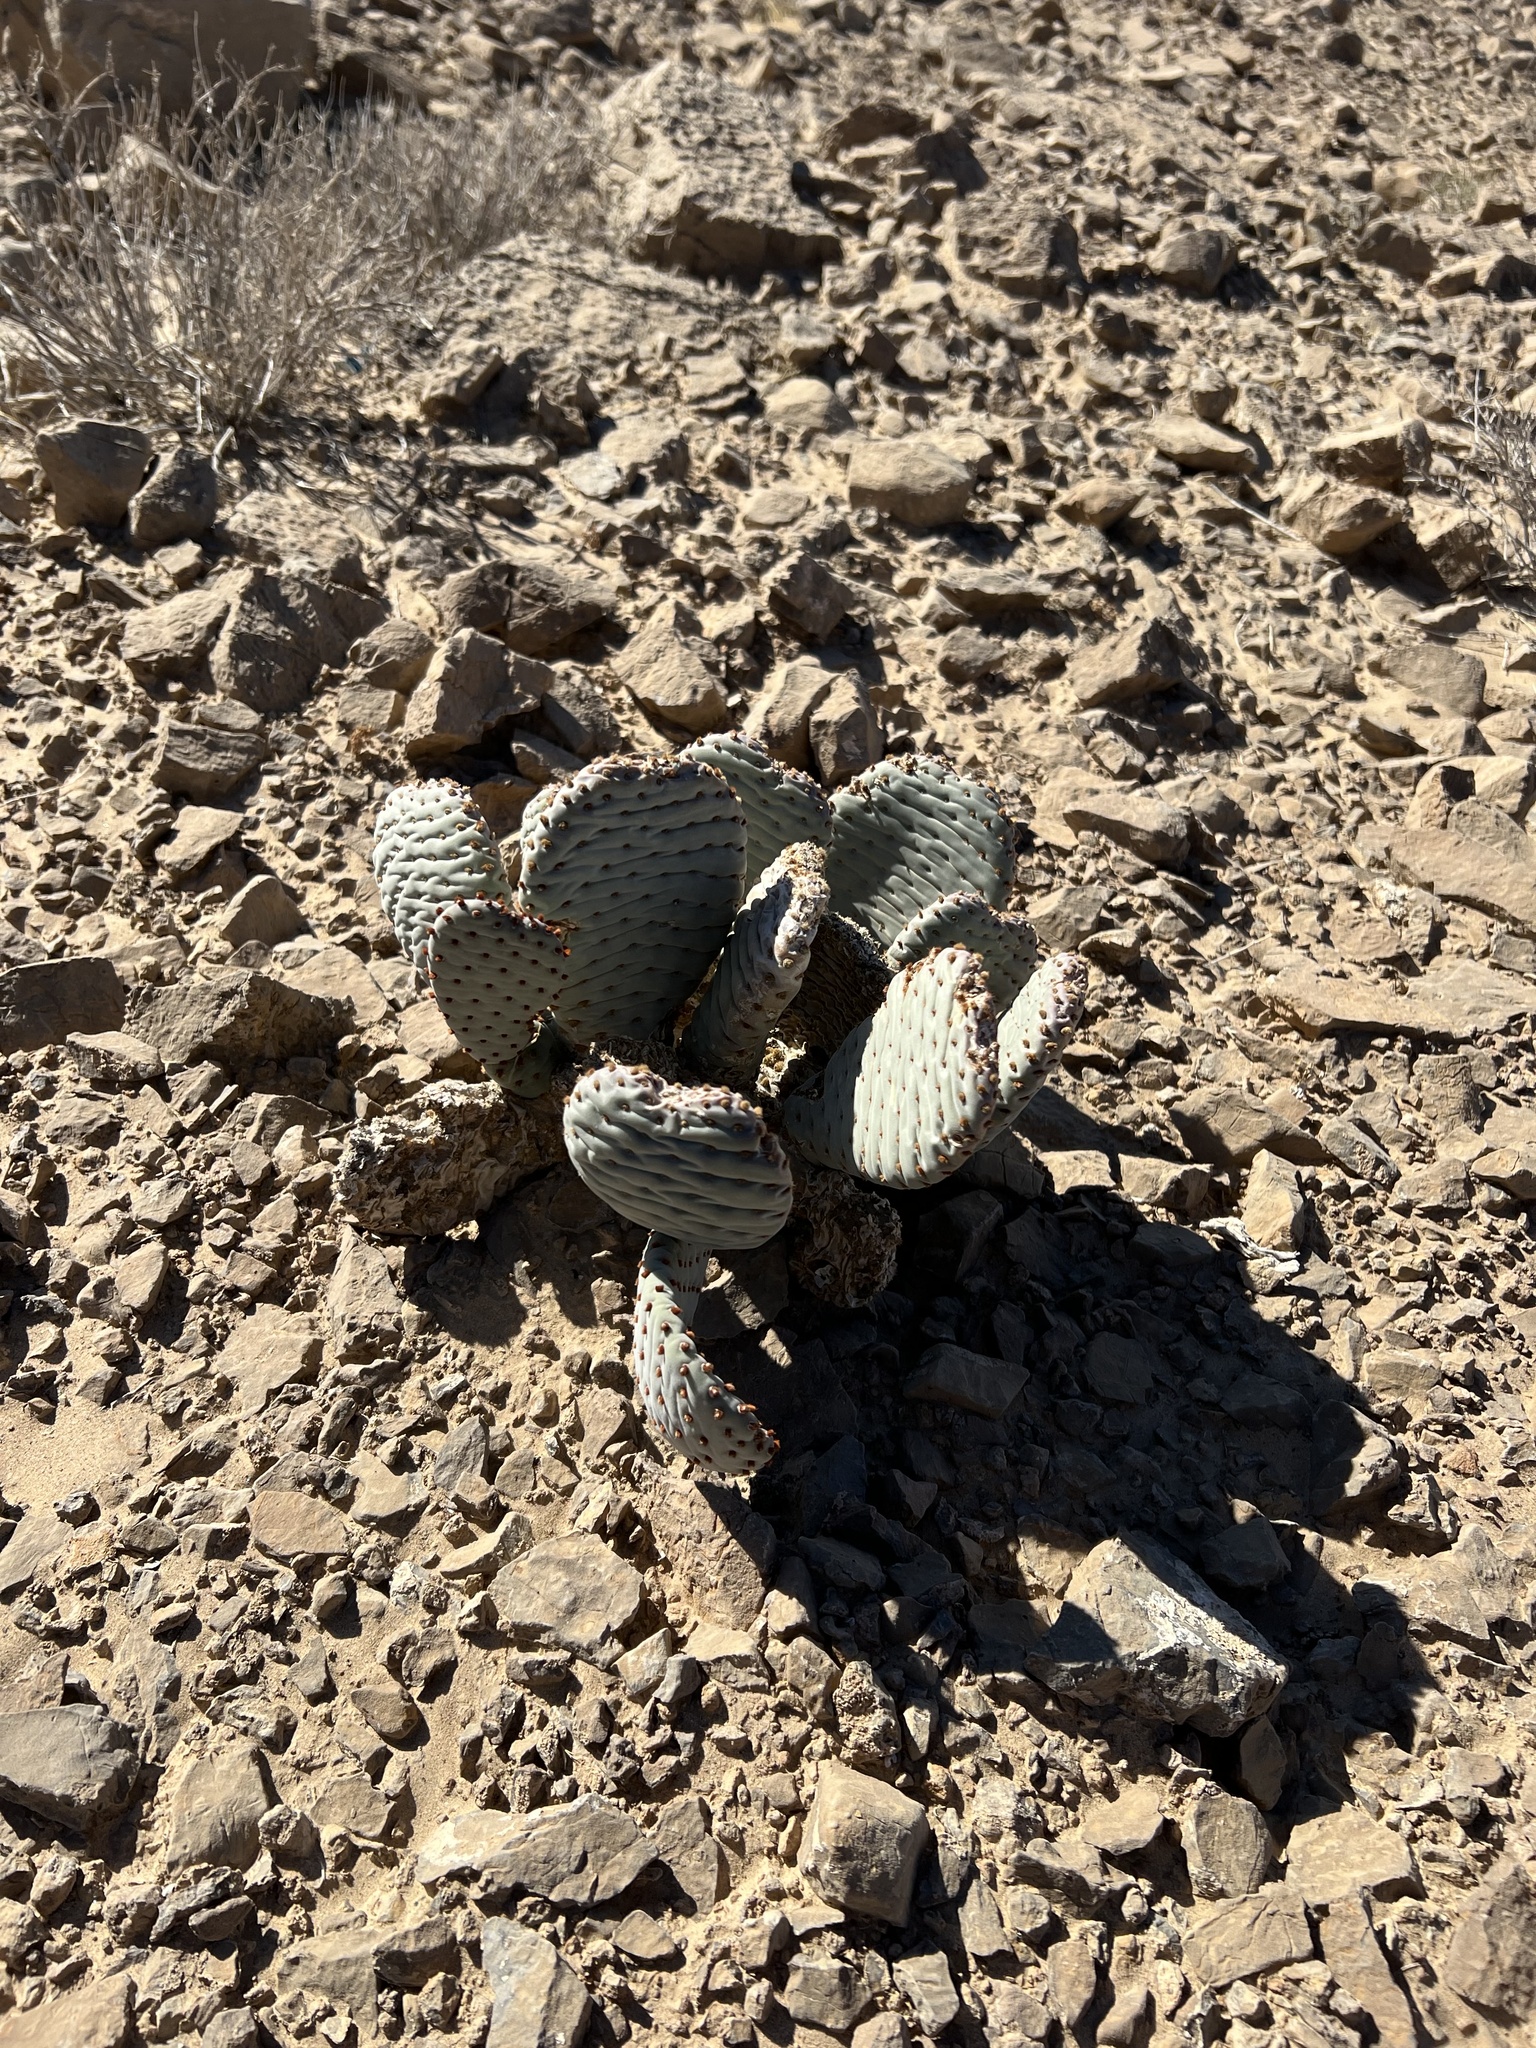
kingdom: Plantae
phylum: Tracheophyta
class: Magnoliopsida
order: Caryophyllales
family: Cactaceae
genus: Opuntia
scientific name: Opuntia basilaris
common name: Beavertail prickly-pear
